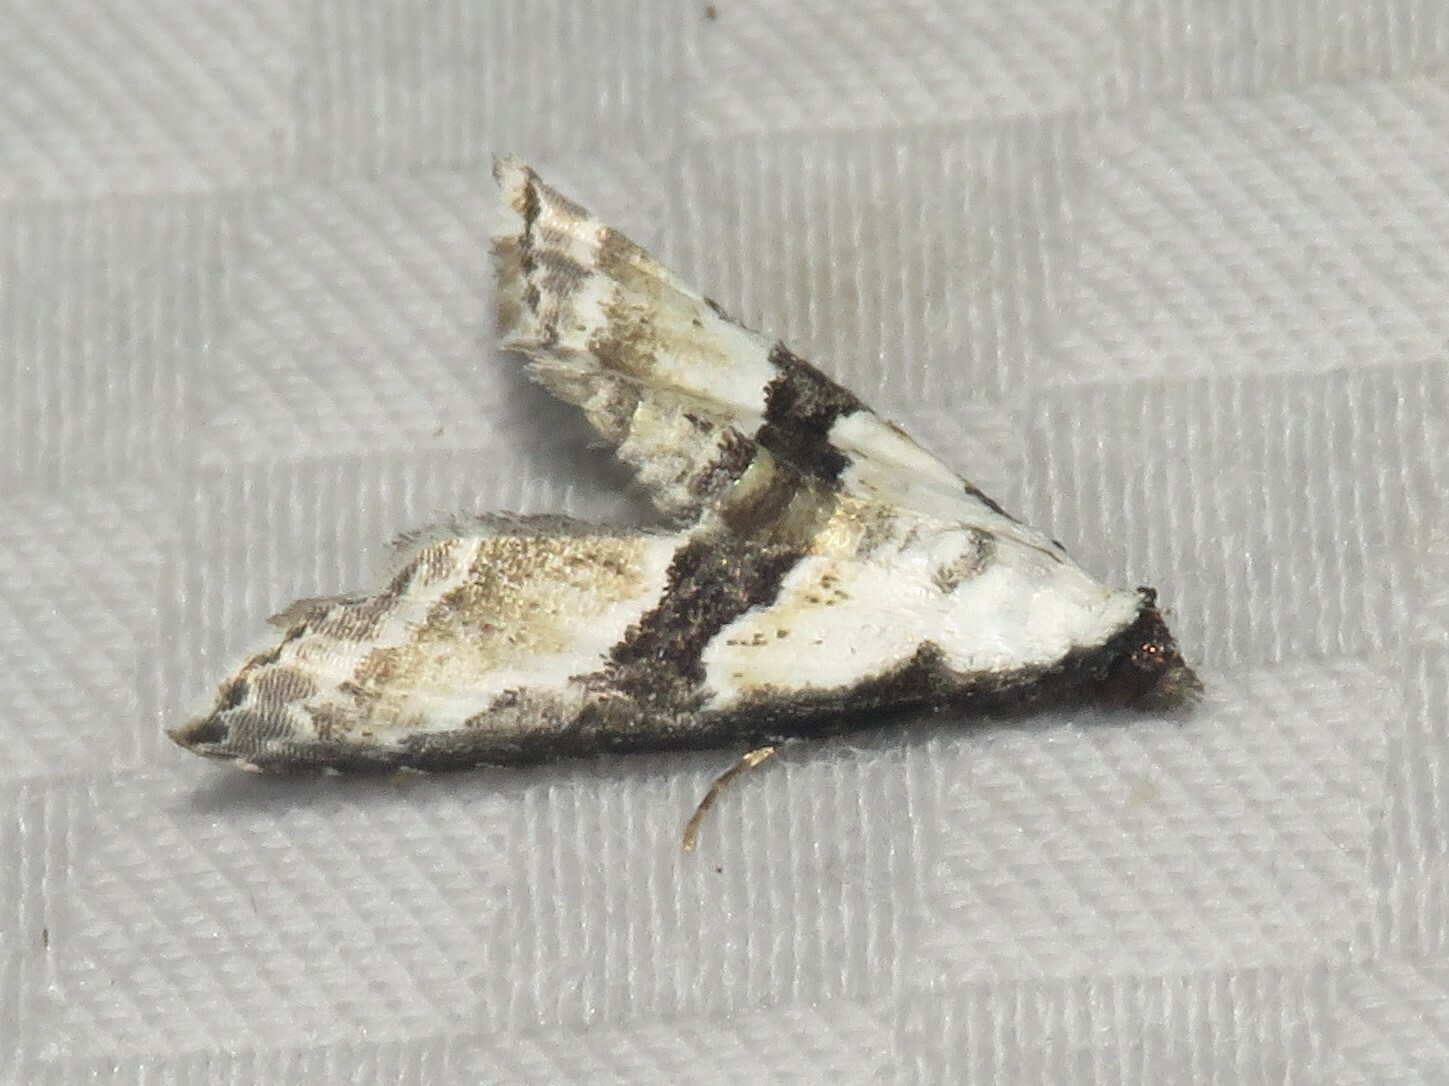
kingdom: Animalia
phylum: Arthropoda
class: Insecta
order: Lepidoptera
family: Noctuidae
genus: Nigetia
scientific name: Nigetia formosalis
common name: Thin-winged owlet
